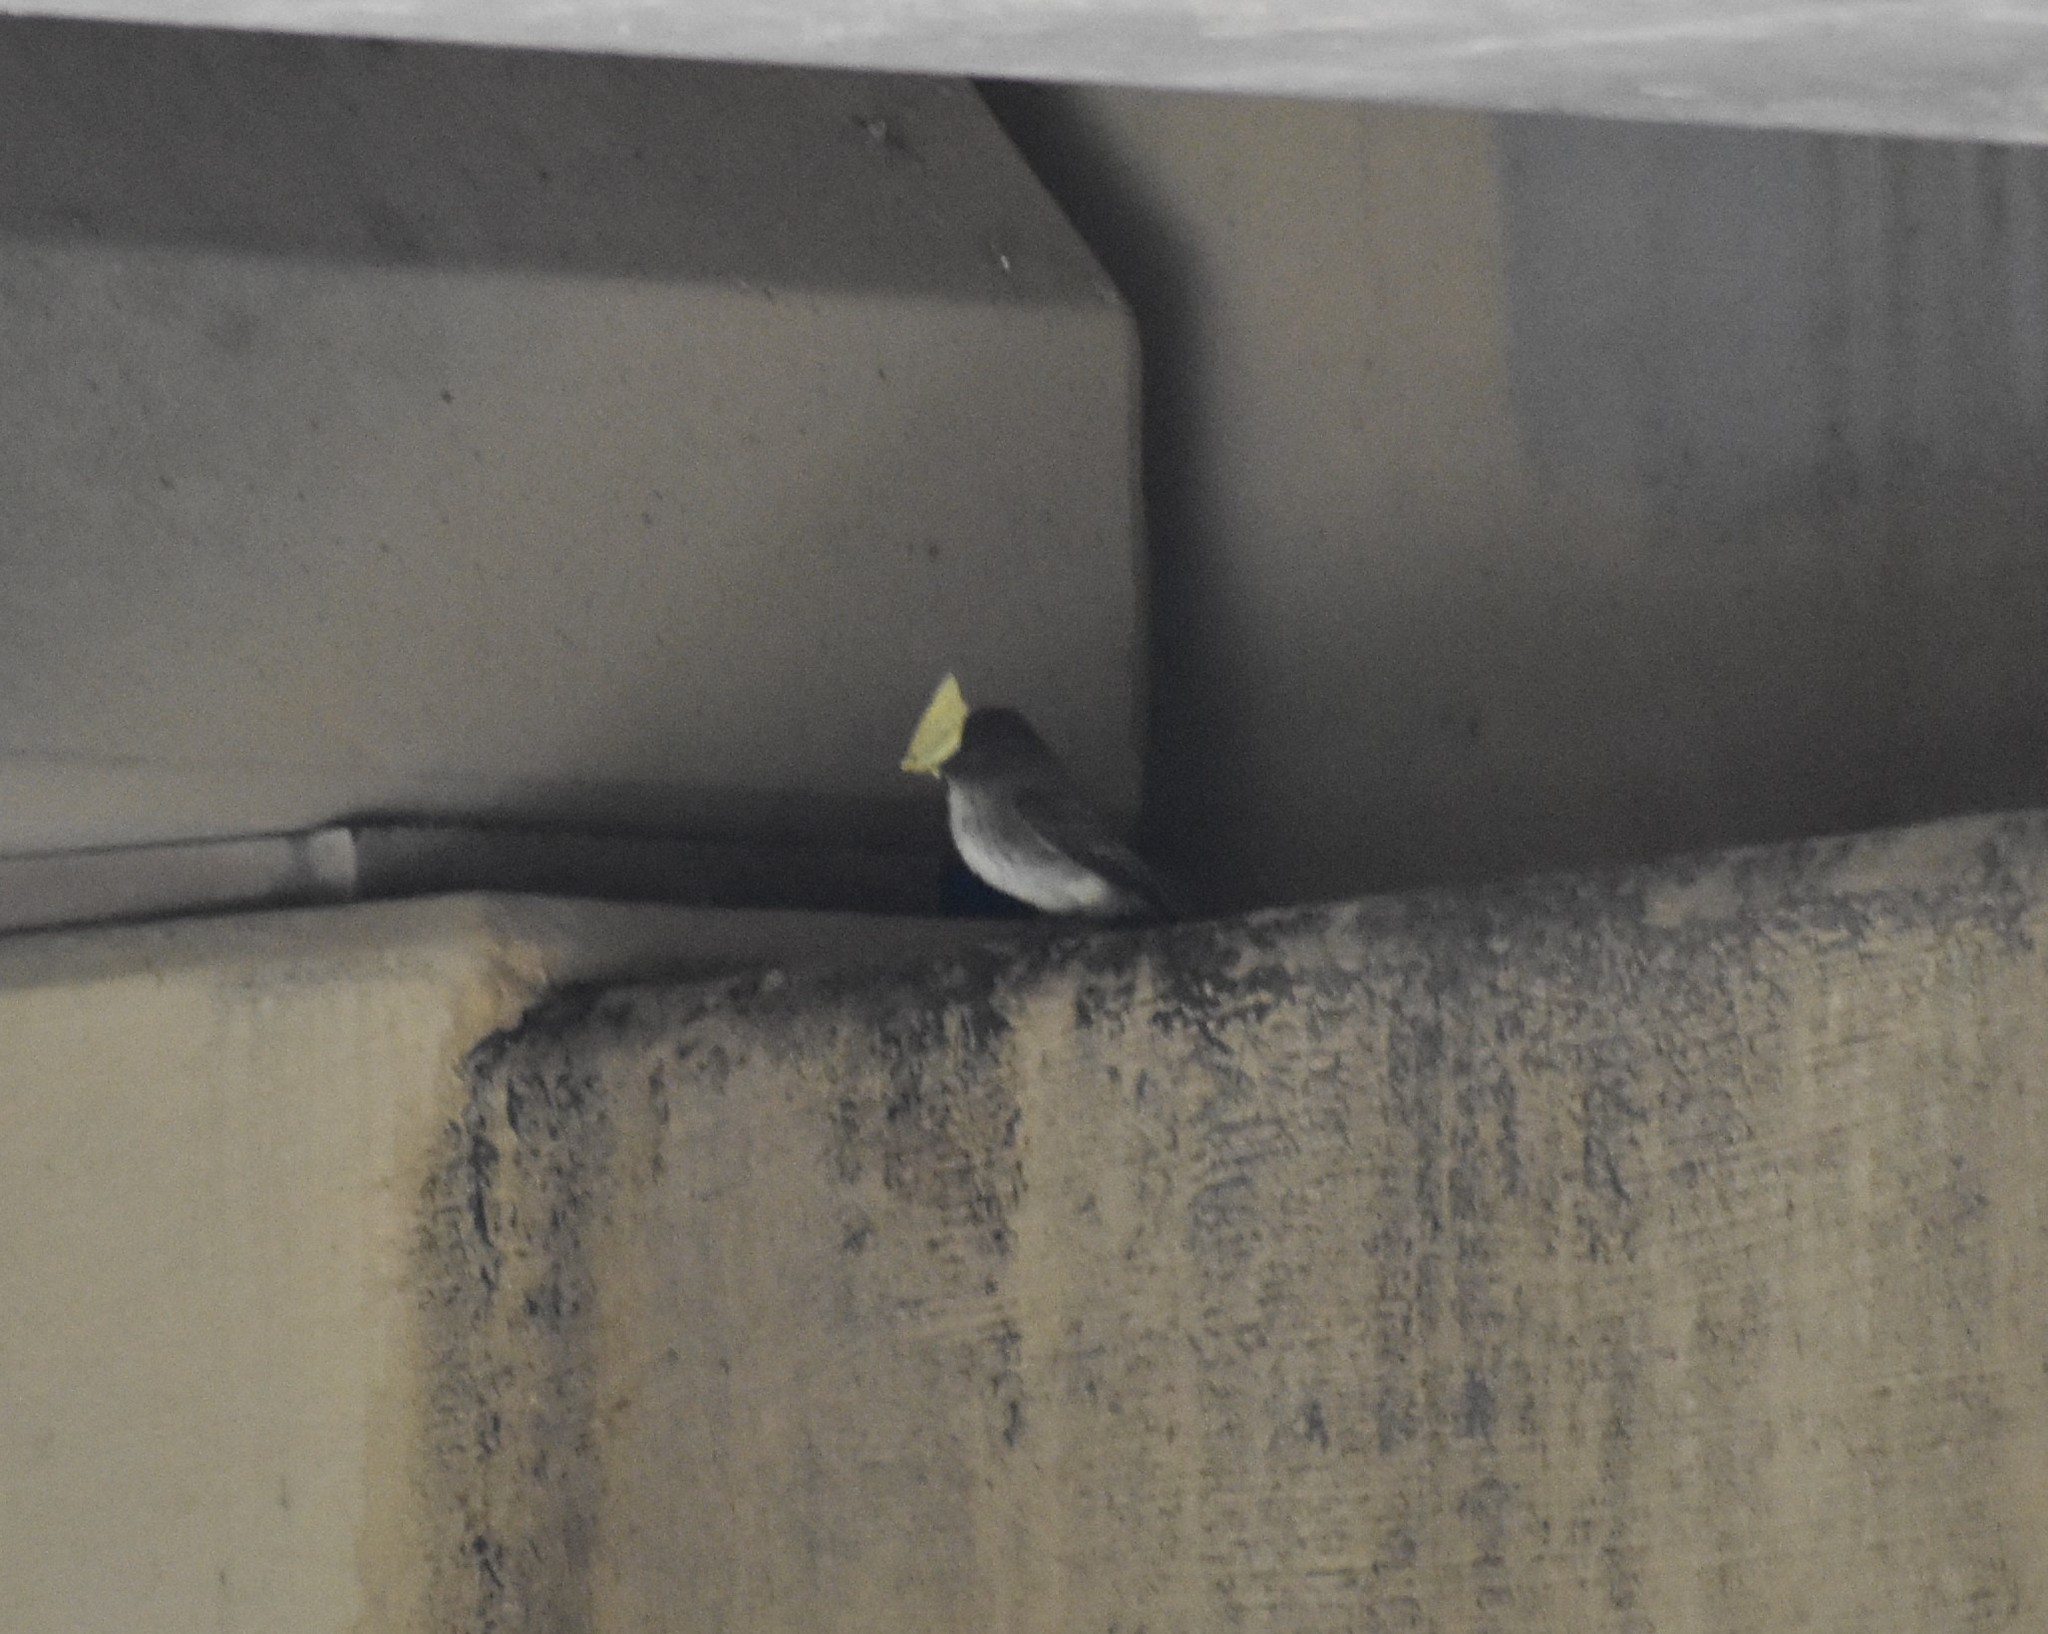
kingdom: Animalia
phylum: Chordata
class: Aves
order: Passeriformes
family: Tyrannidae
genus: Sayornis
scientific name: Sayornis phoebe
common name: Eastern phoebe
